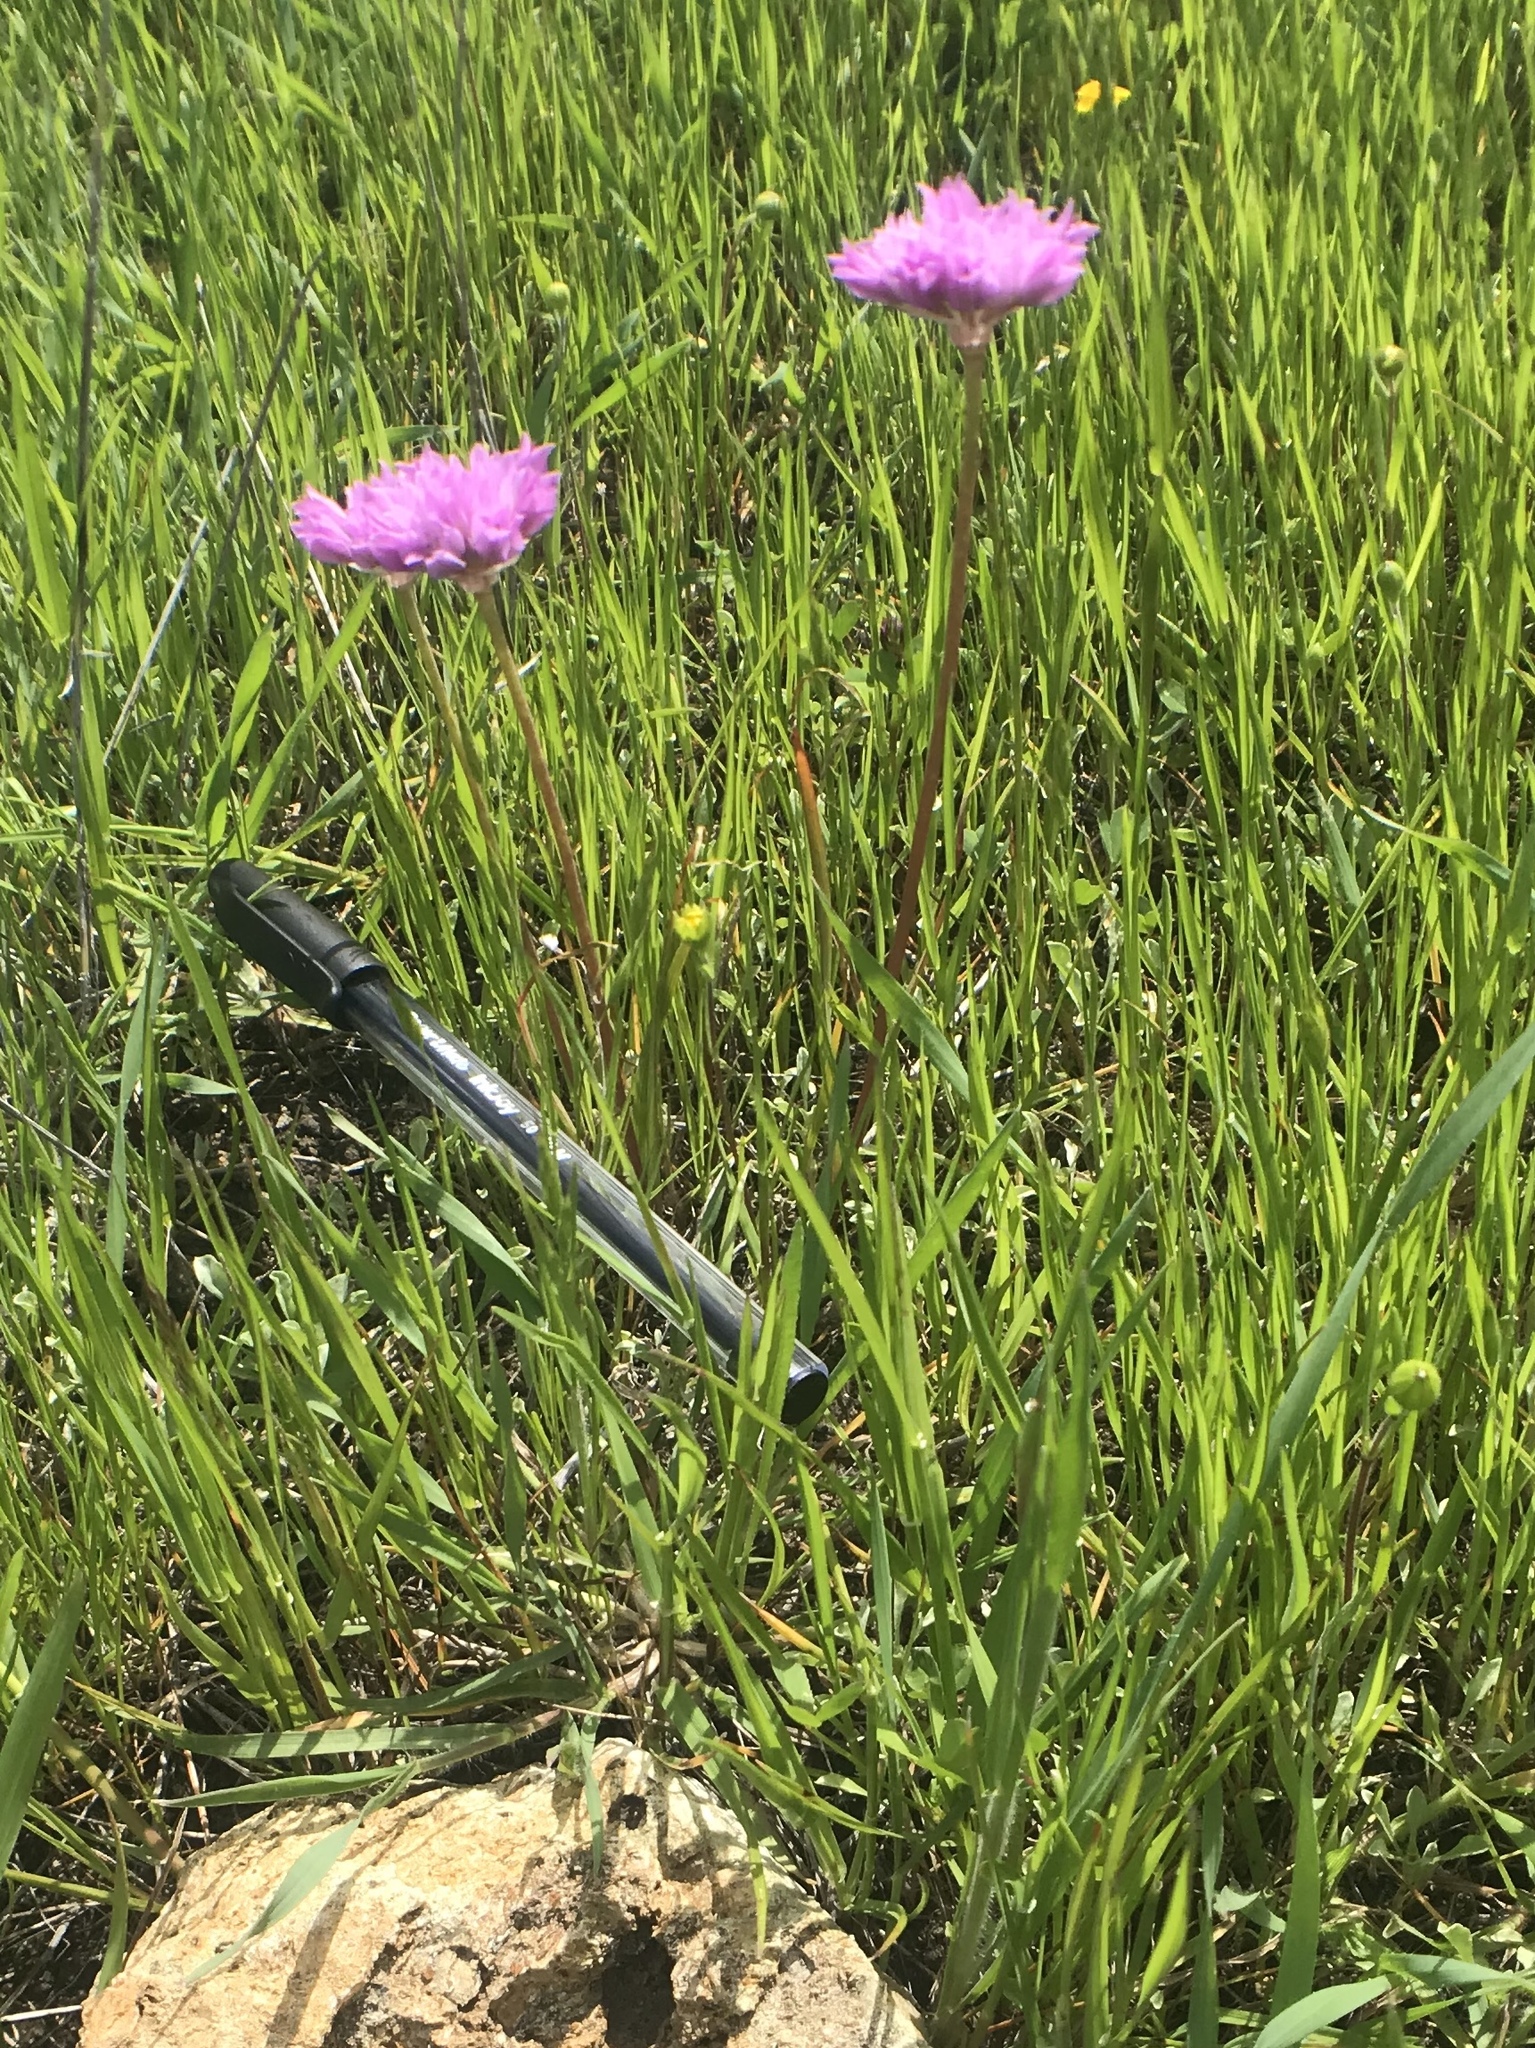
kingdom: Plantae
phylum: Tracheophyta
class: Liliopsida
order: Asparagales
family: Amaryllidaceae
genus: Allium
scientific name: Allium serra
